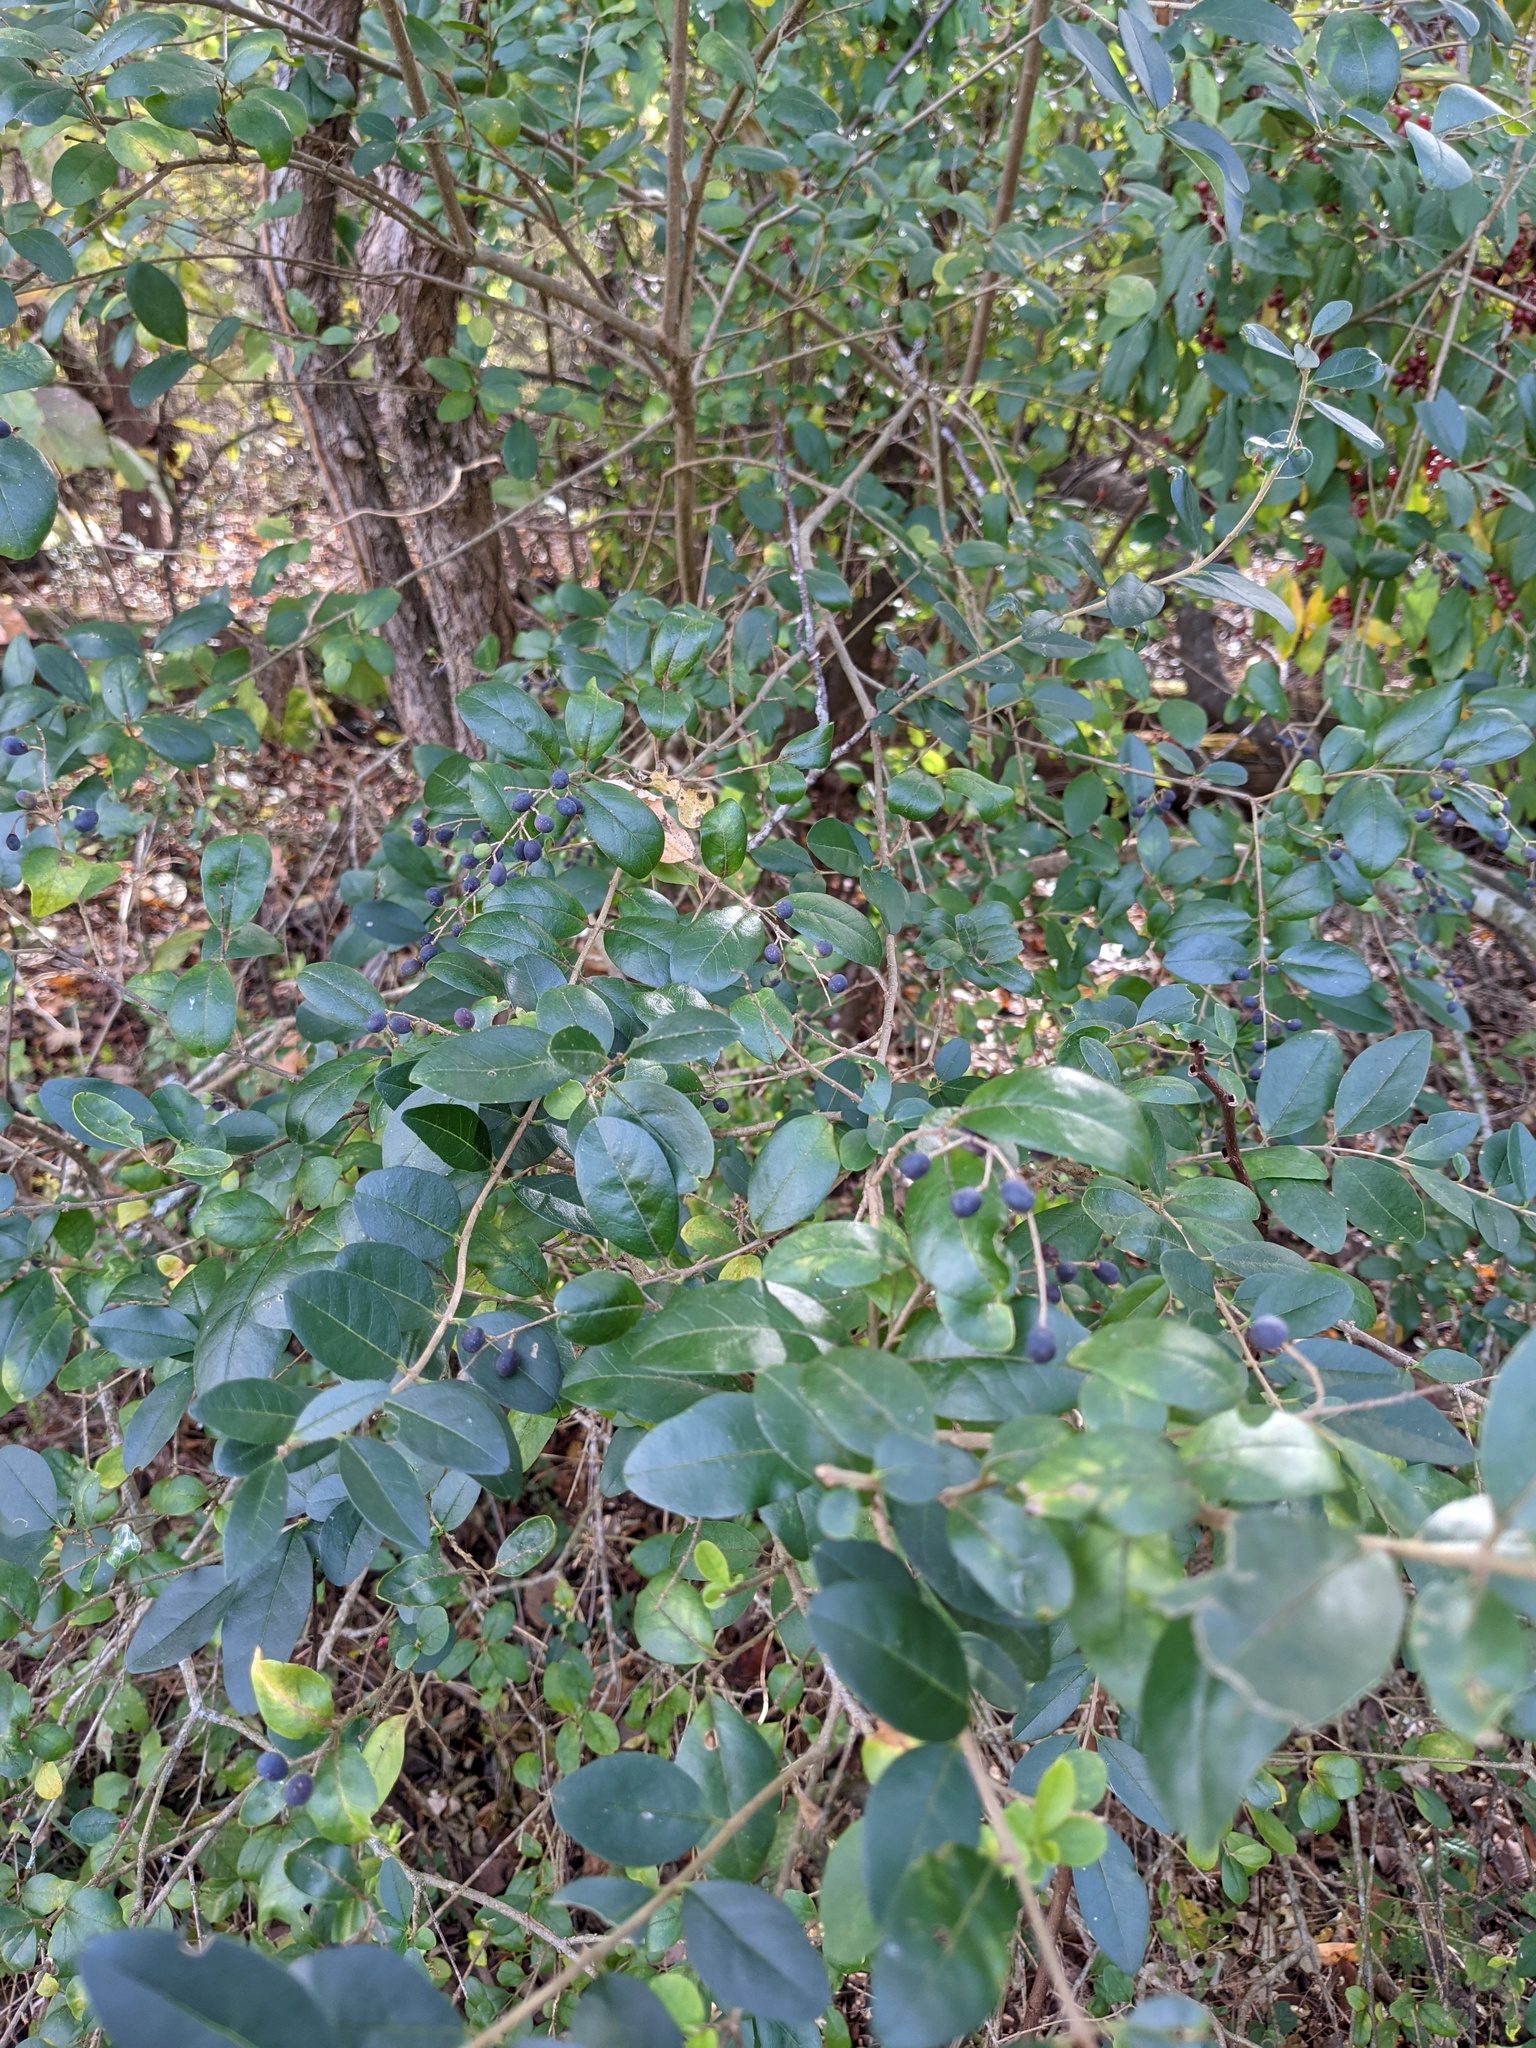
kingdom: Plantae
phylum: Tracheophyta
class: Magnoliopsida
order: Lamiales
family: Oleaceae
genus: Ligustrum
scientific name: Ligustrum sinense
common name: Chinese privet
